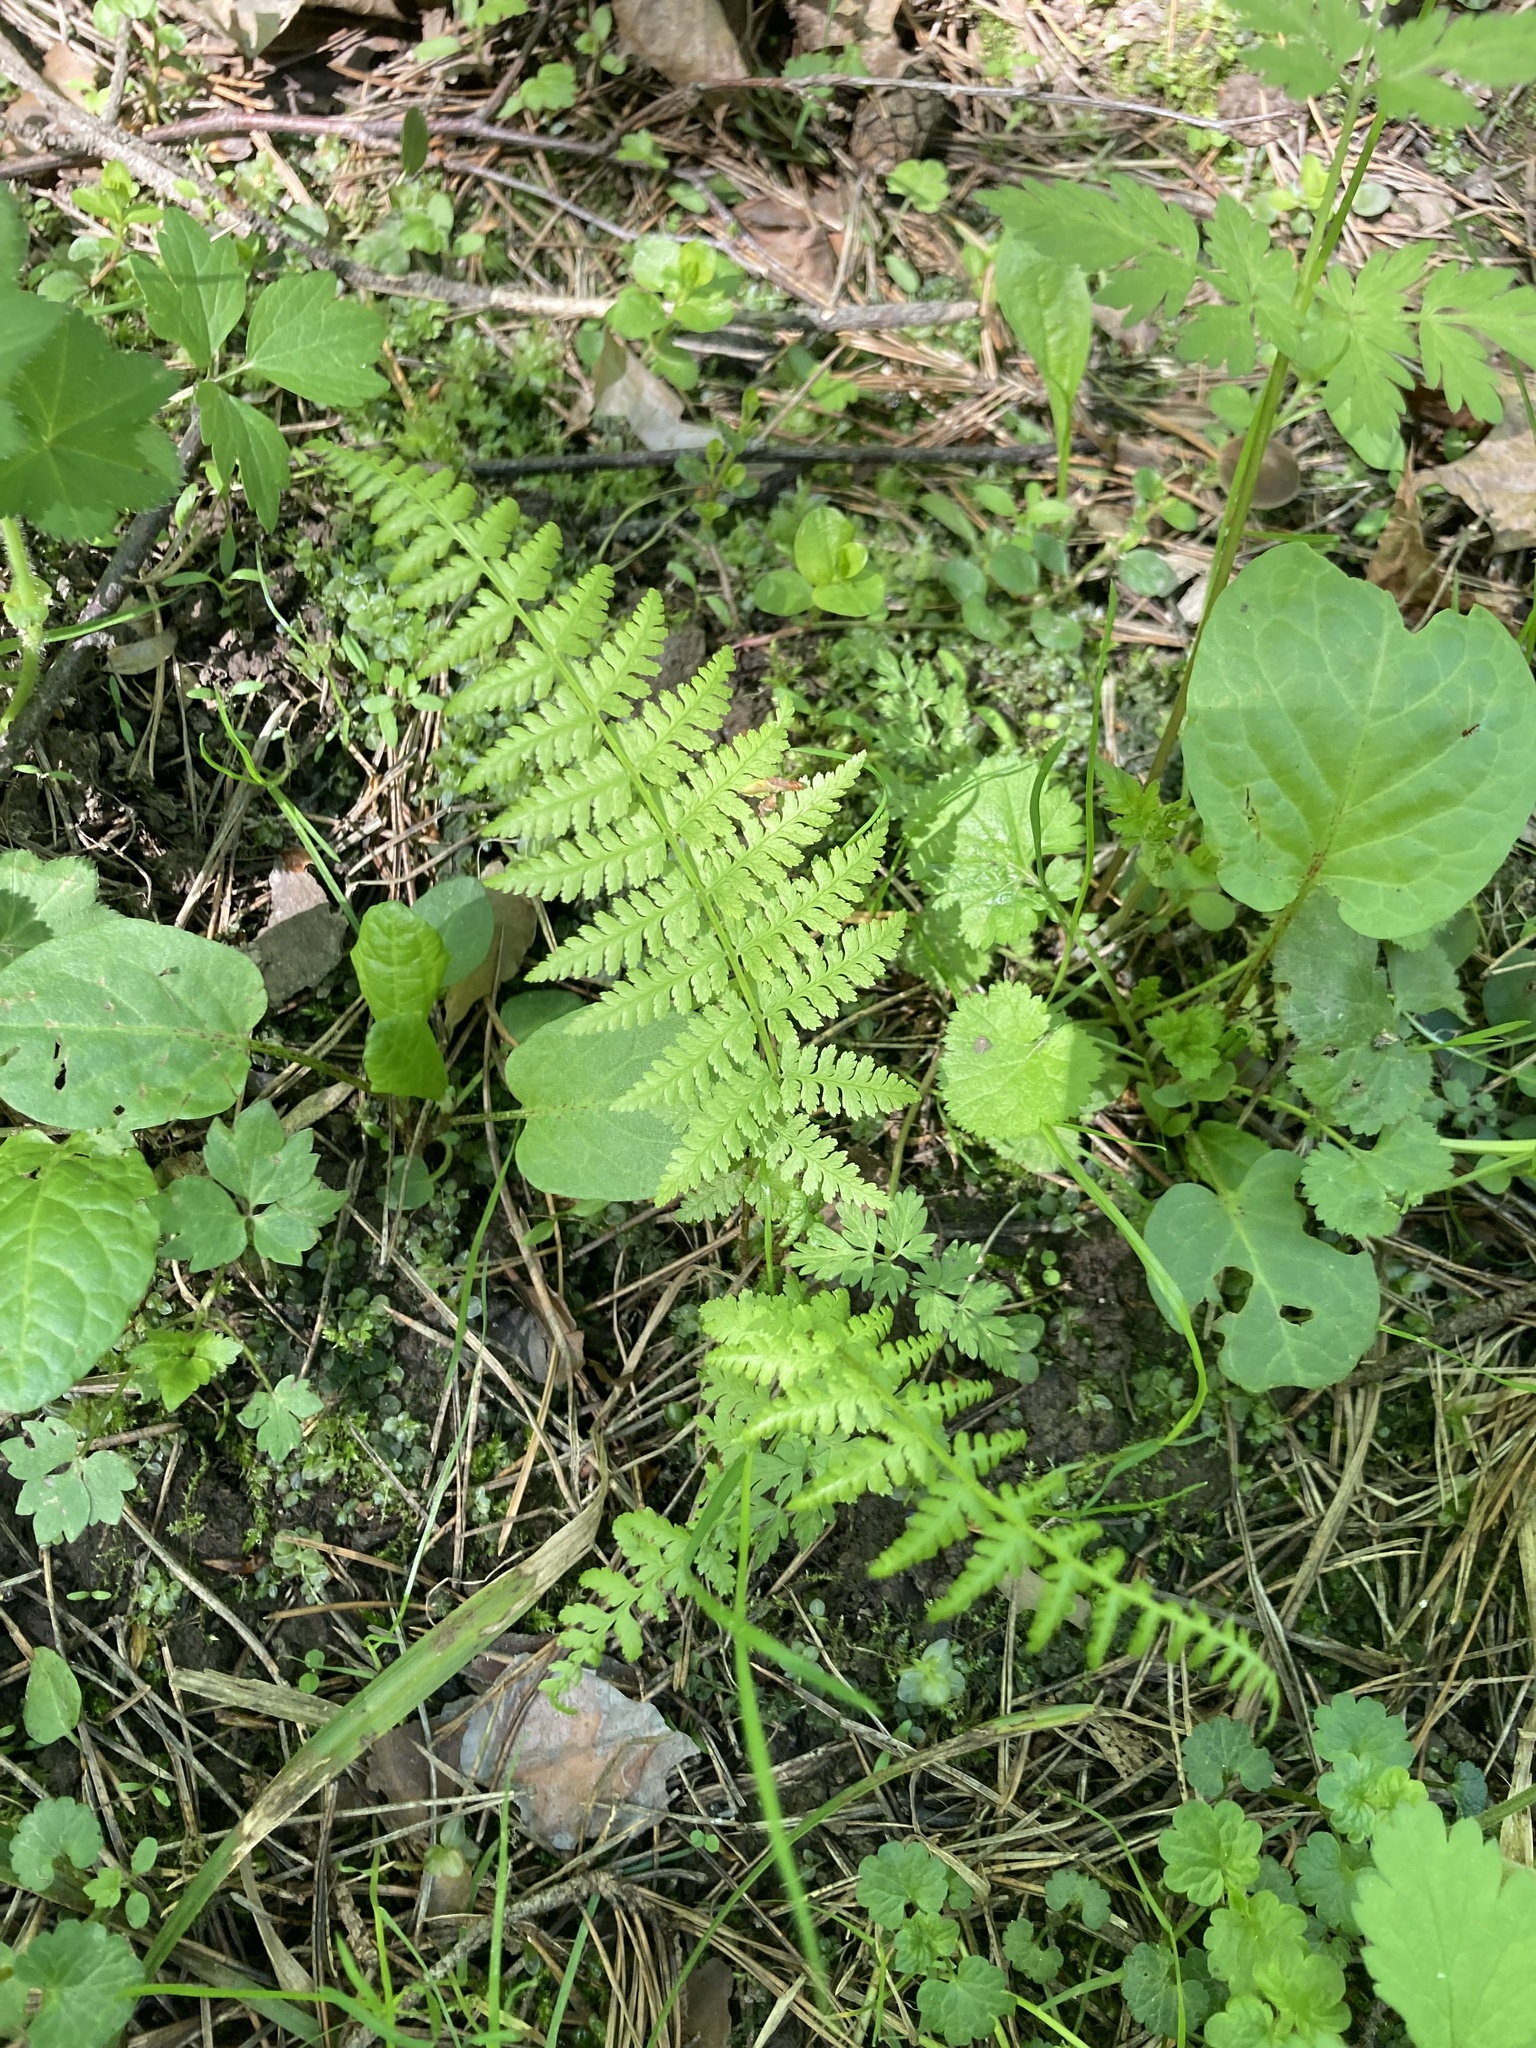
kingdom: Plantae
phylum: Tracheophyta
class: Polypodiopsida
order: Polypodiales
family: Athyriaceae
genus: Athyrium
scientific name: Athyrium filix-femina
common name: Lady fern
